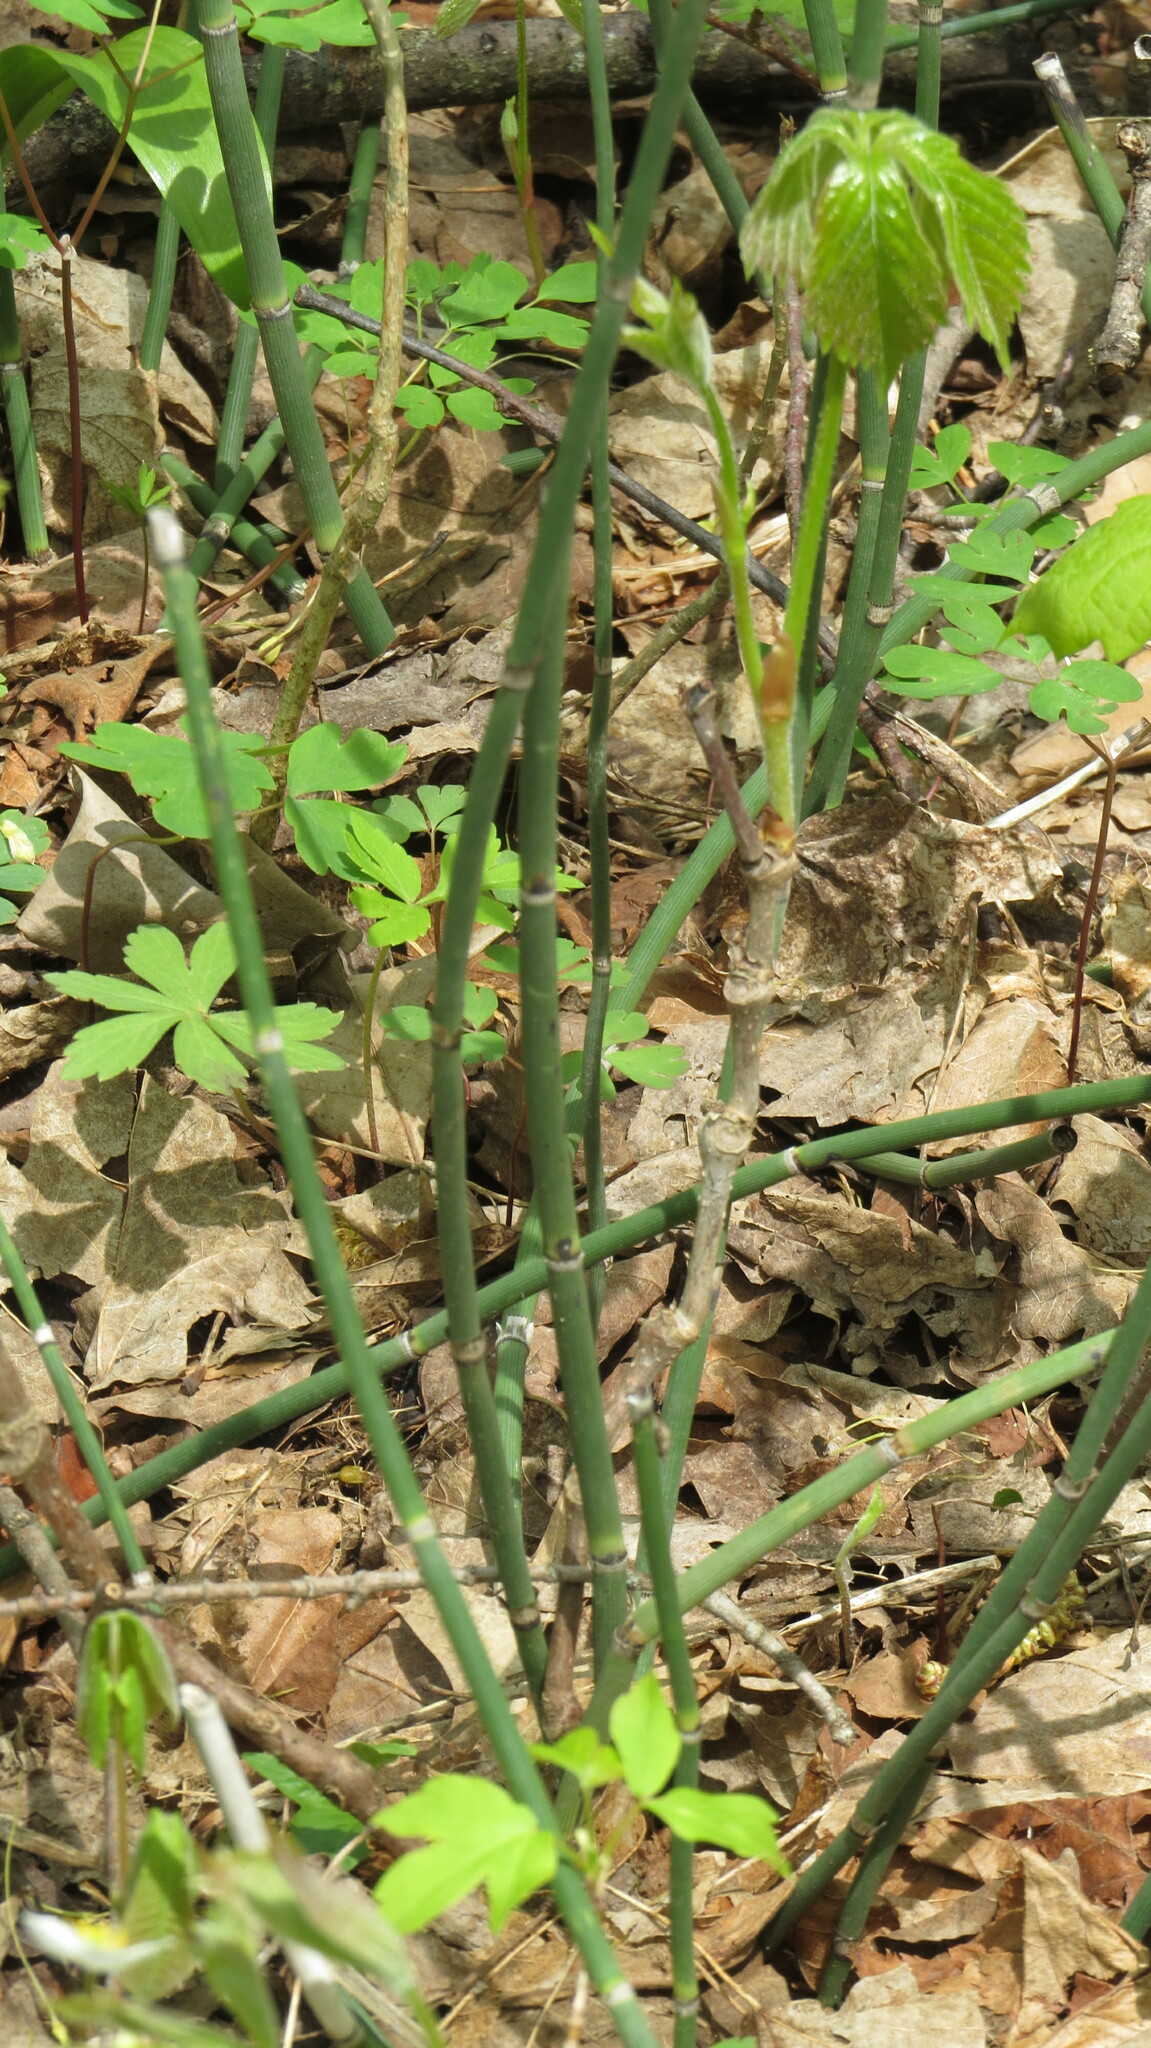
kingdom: Plantae
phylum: Tracheophyta
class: Polypodiopsida
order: Equisetales
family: Equisetaceae
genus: Equisetum
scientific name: Equisetum praealtum
